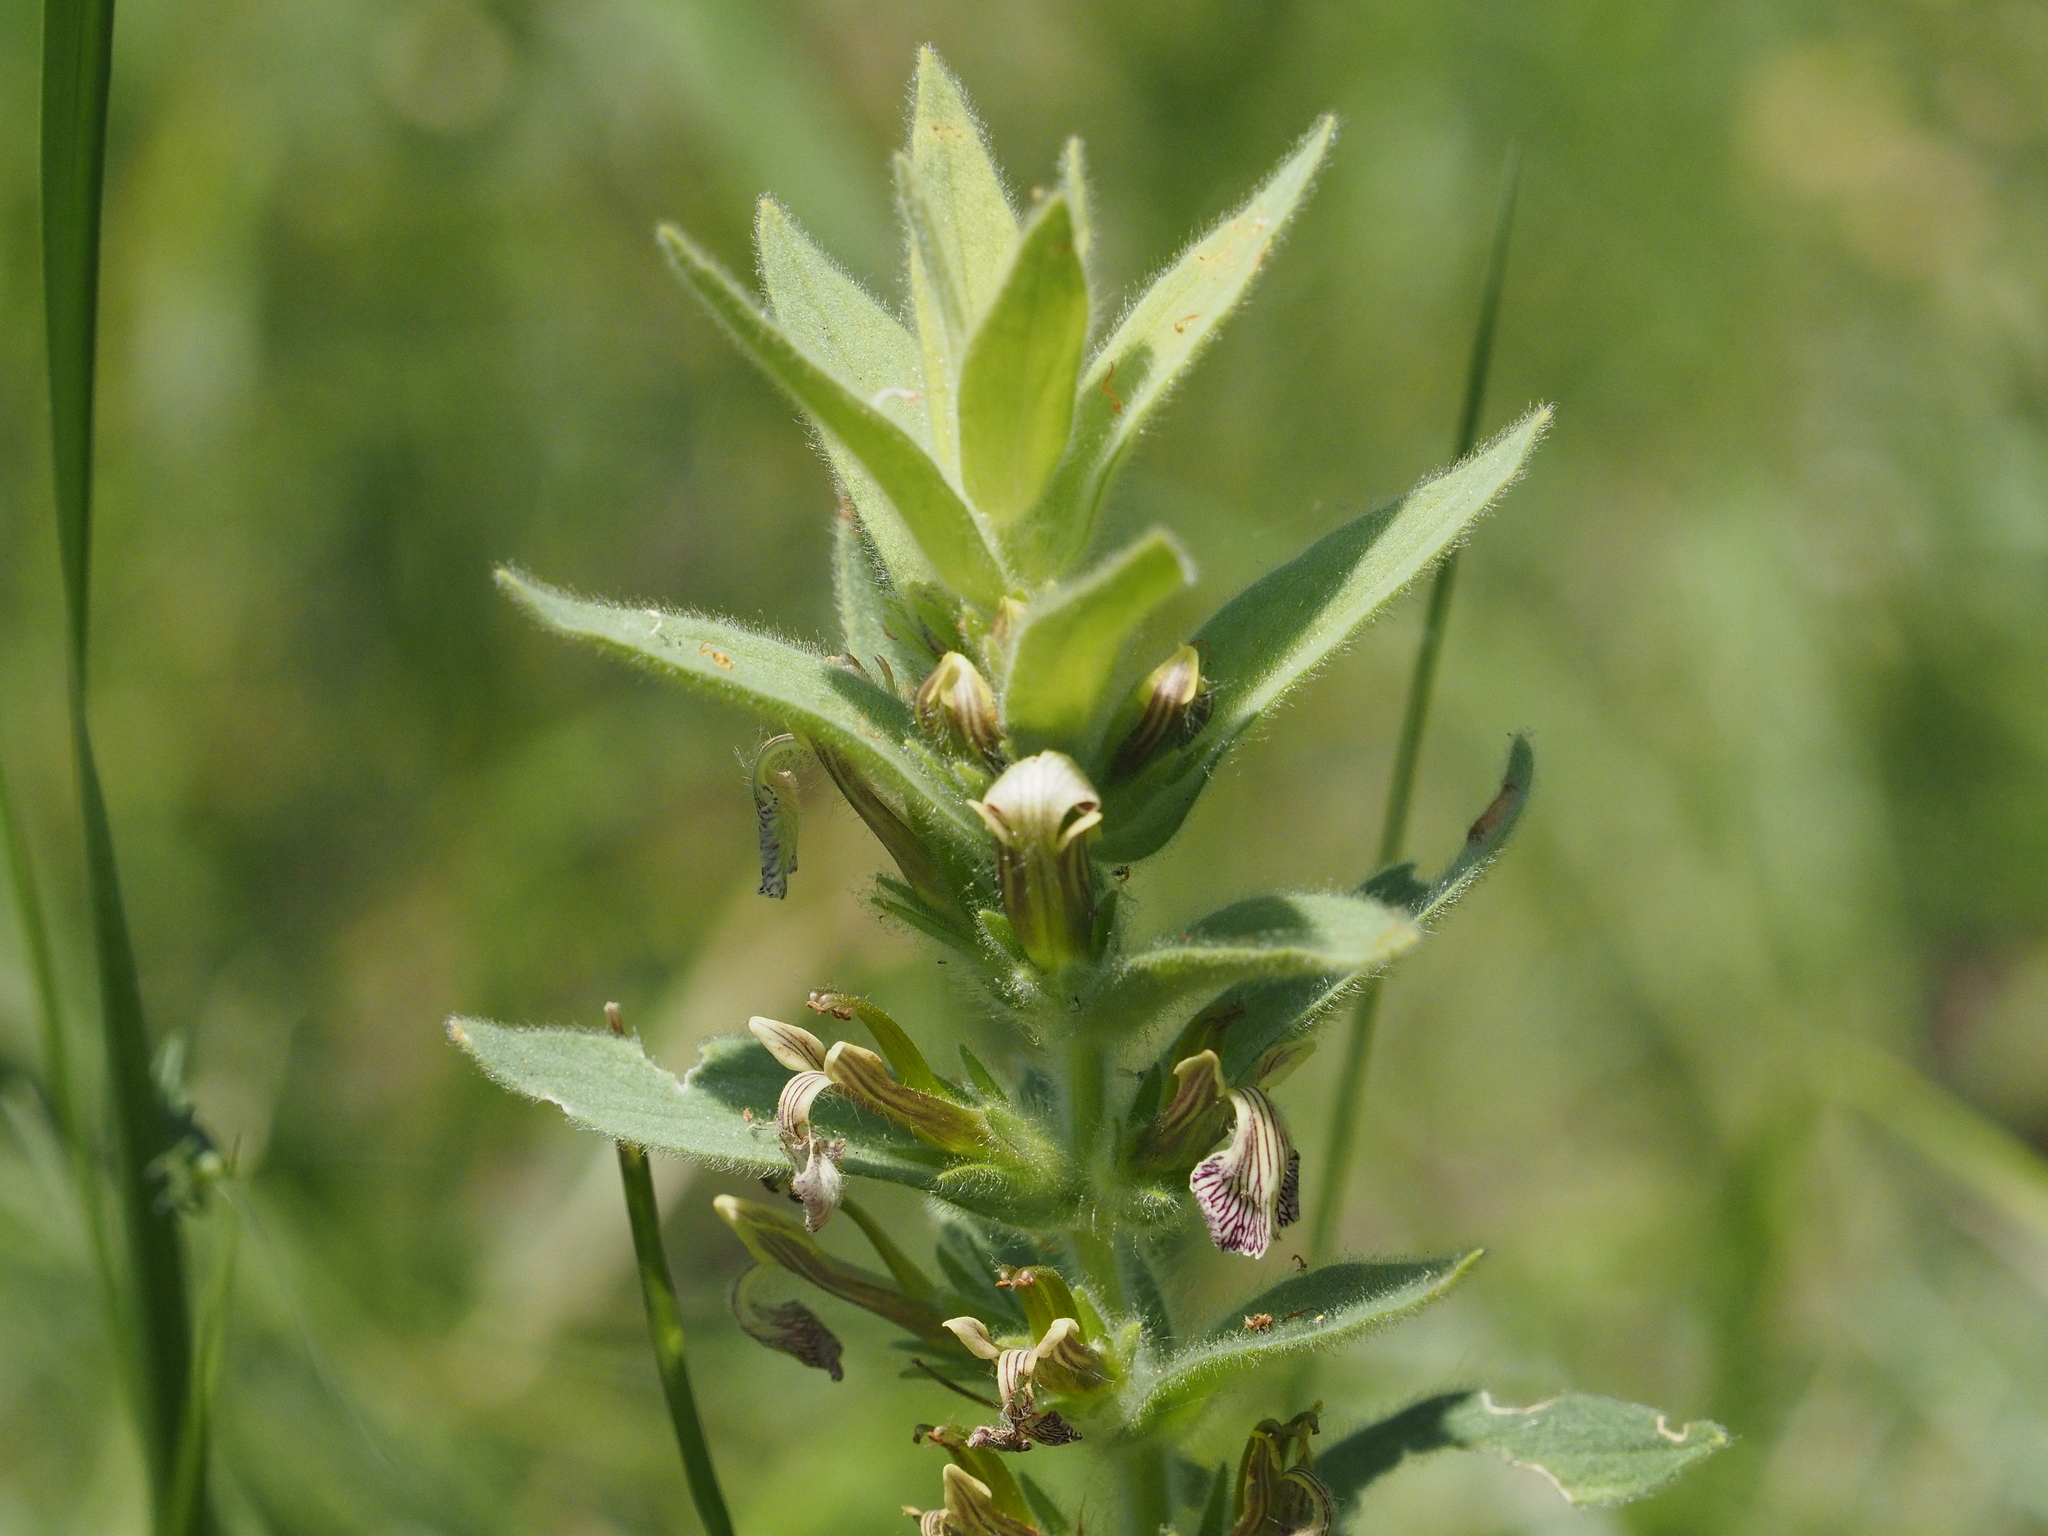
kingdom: Plantae
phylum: Tracheophyta
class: Magnoliopsida
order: Lamiales
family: Lamiaceae
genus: Ajuga
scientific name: Ajuga laxmannii
